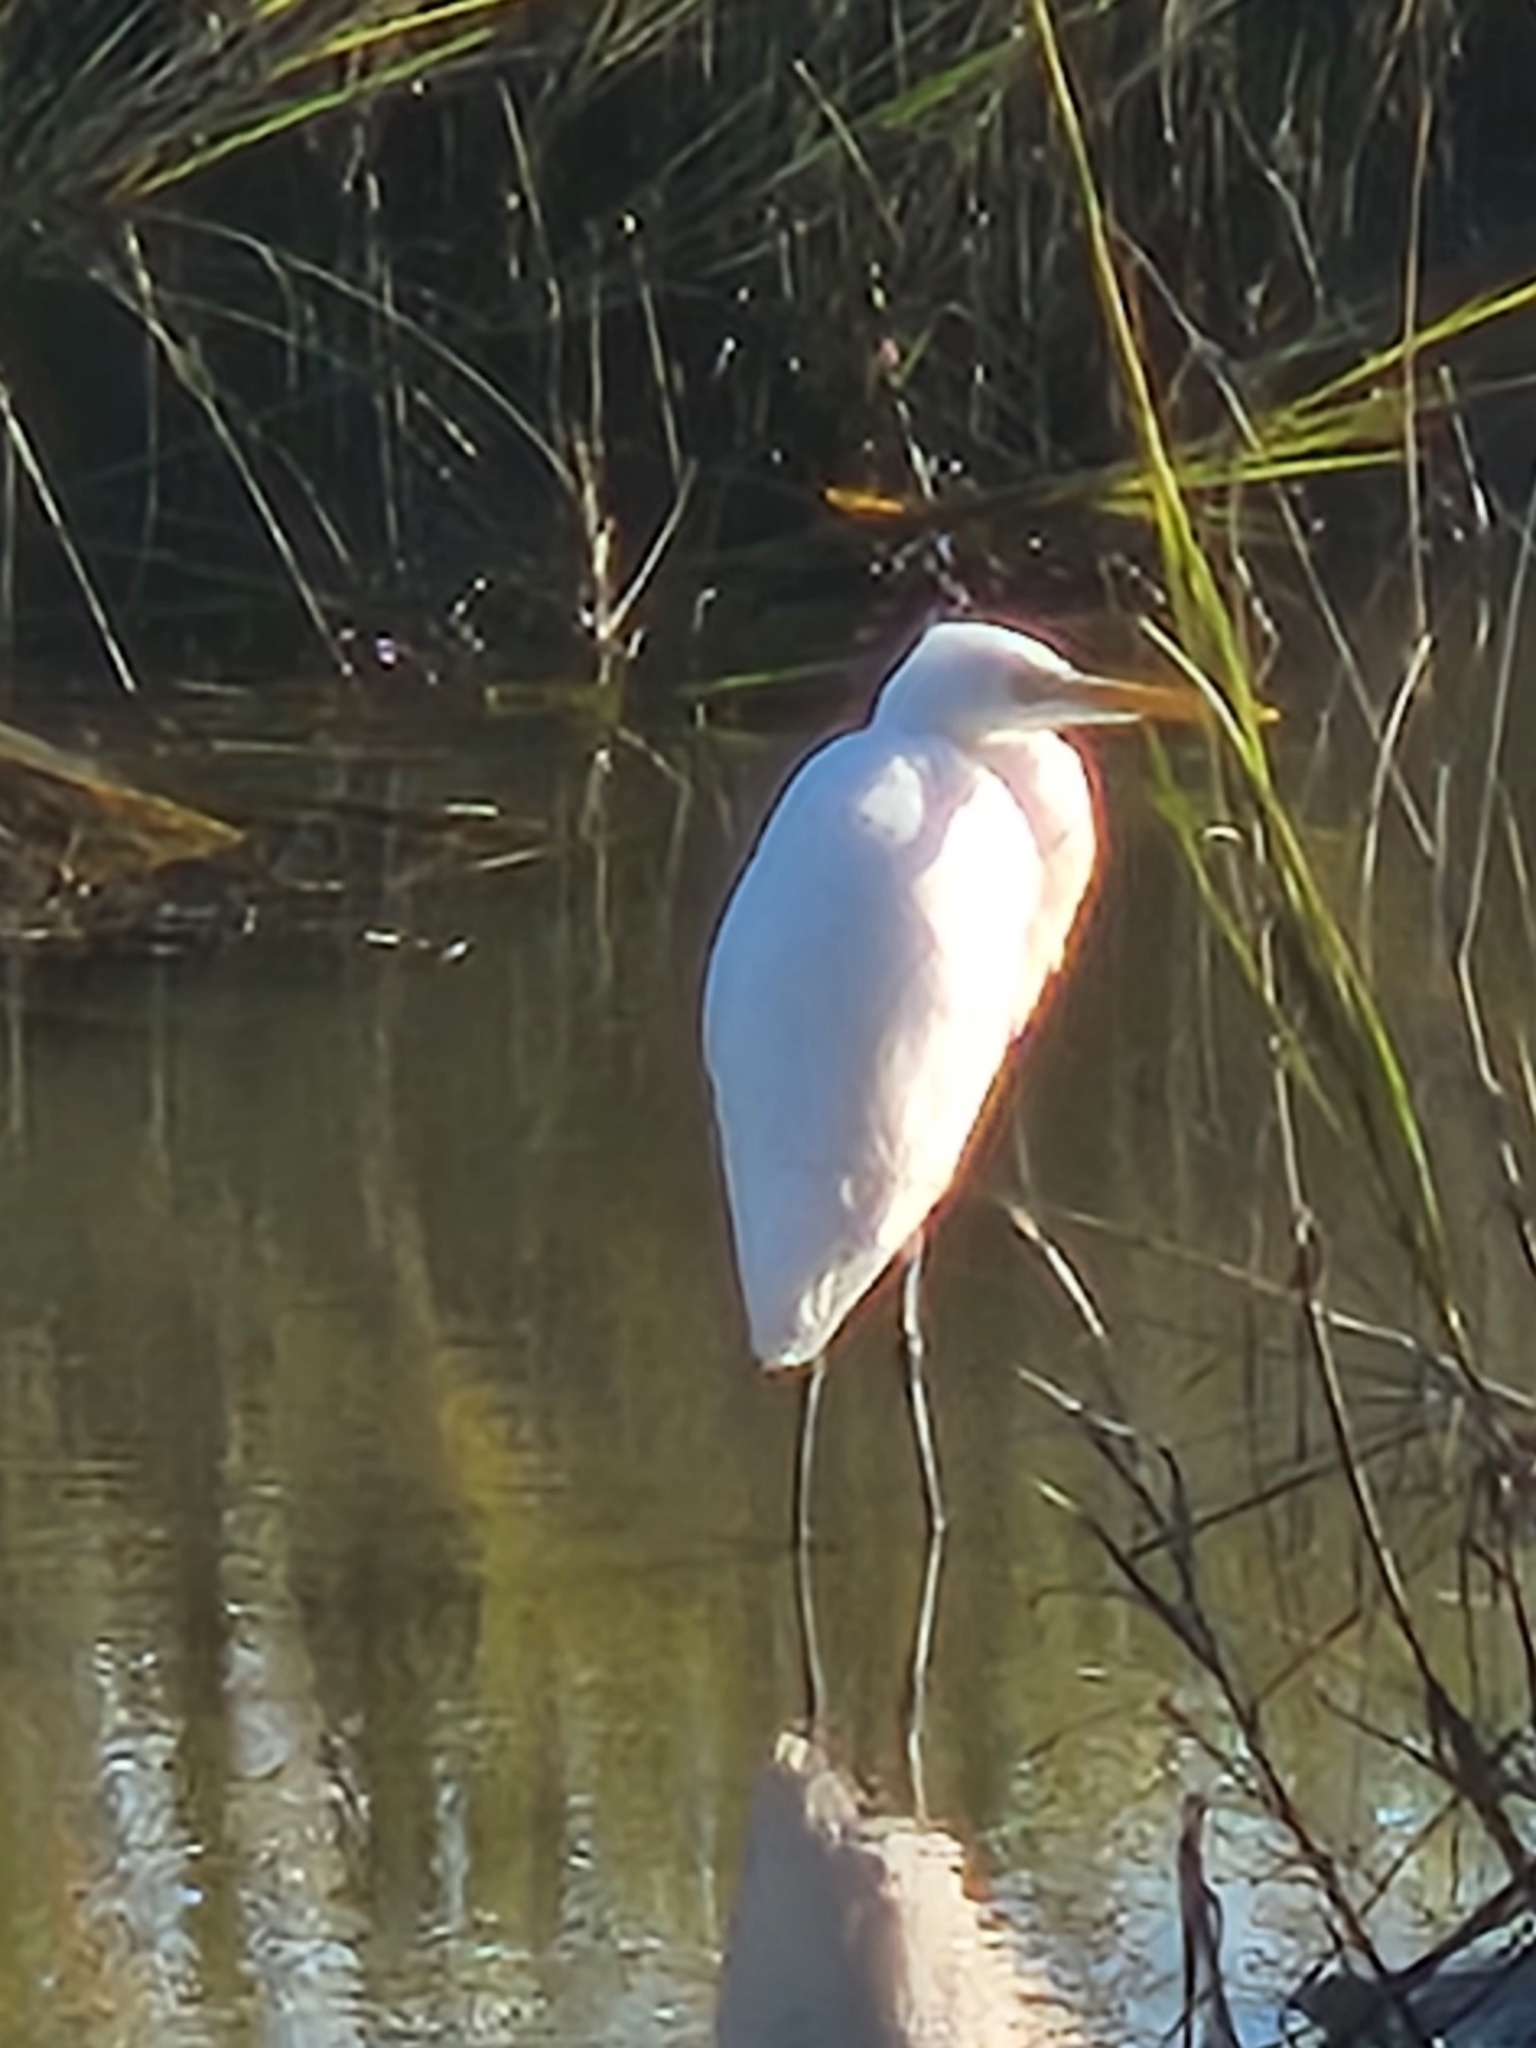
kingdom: Animalia
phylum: Chordata
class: Aves
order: Pelecaniformes
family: Ardeidae
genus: Ardea
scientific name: Ardea alba
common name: Great egret
